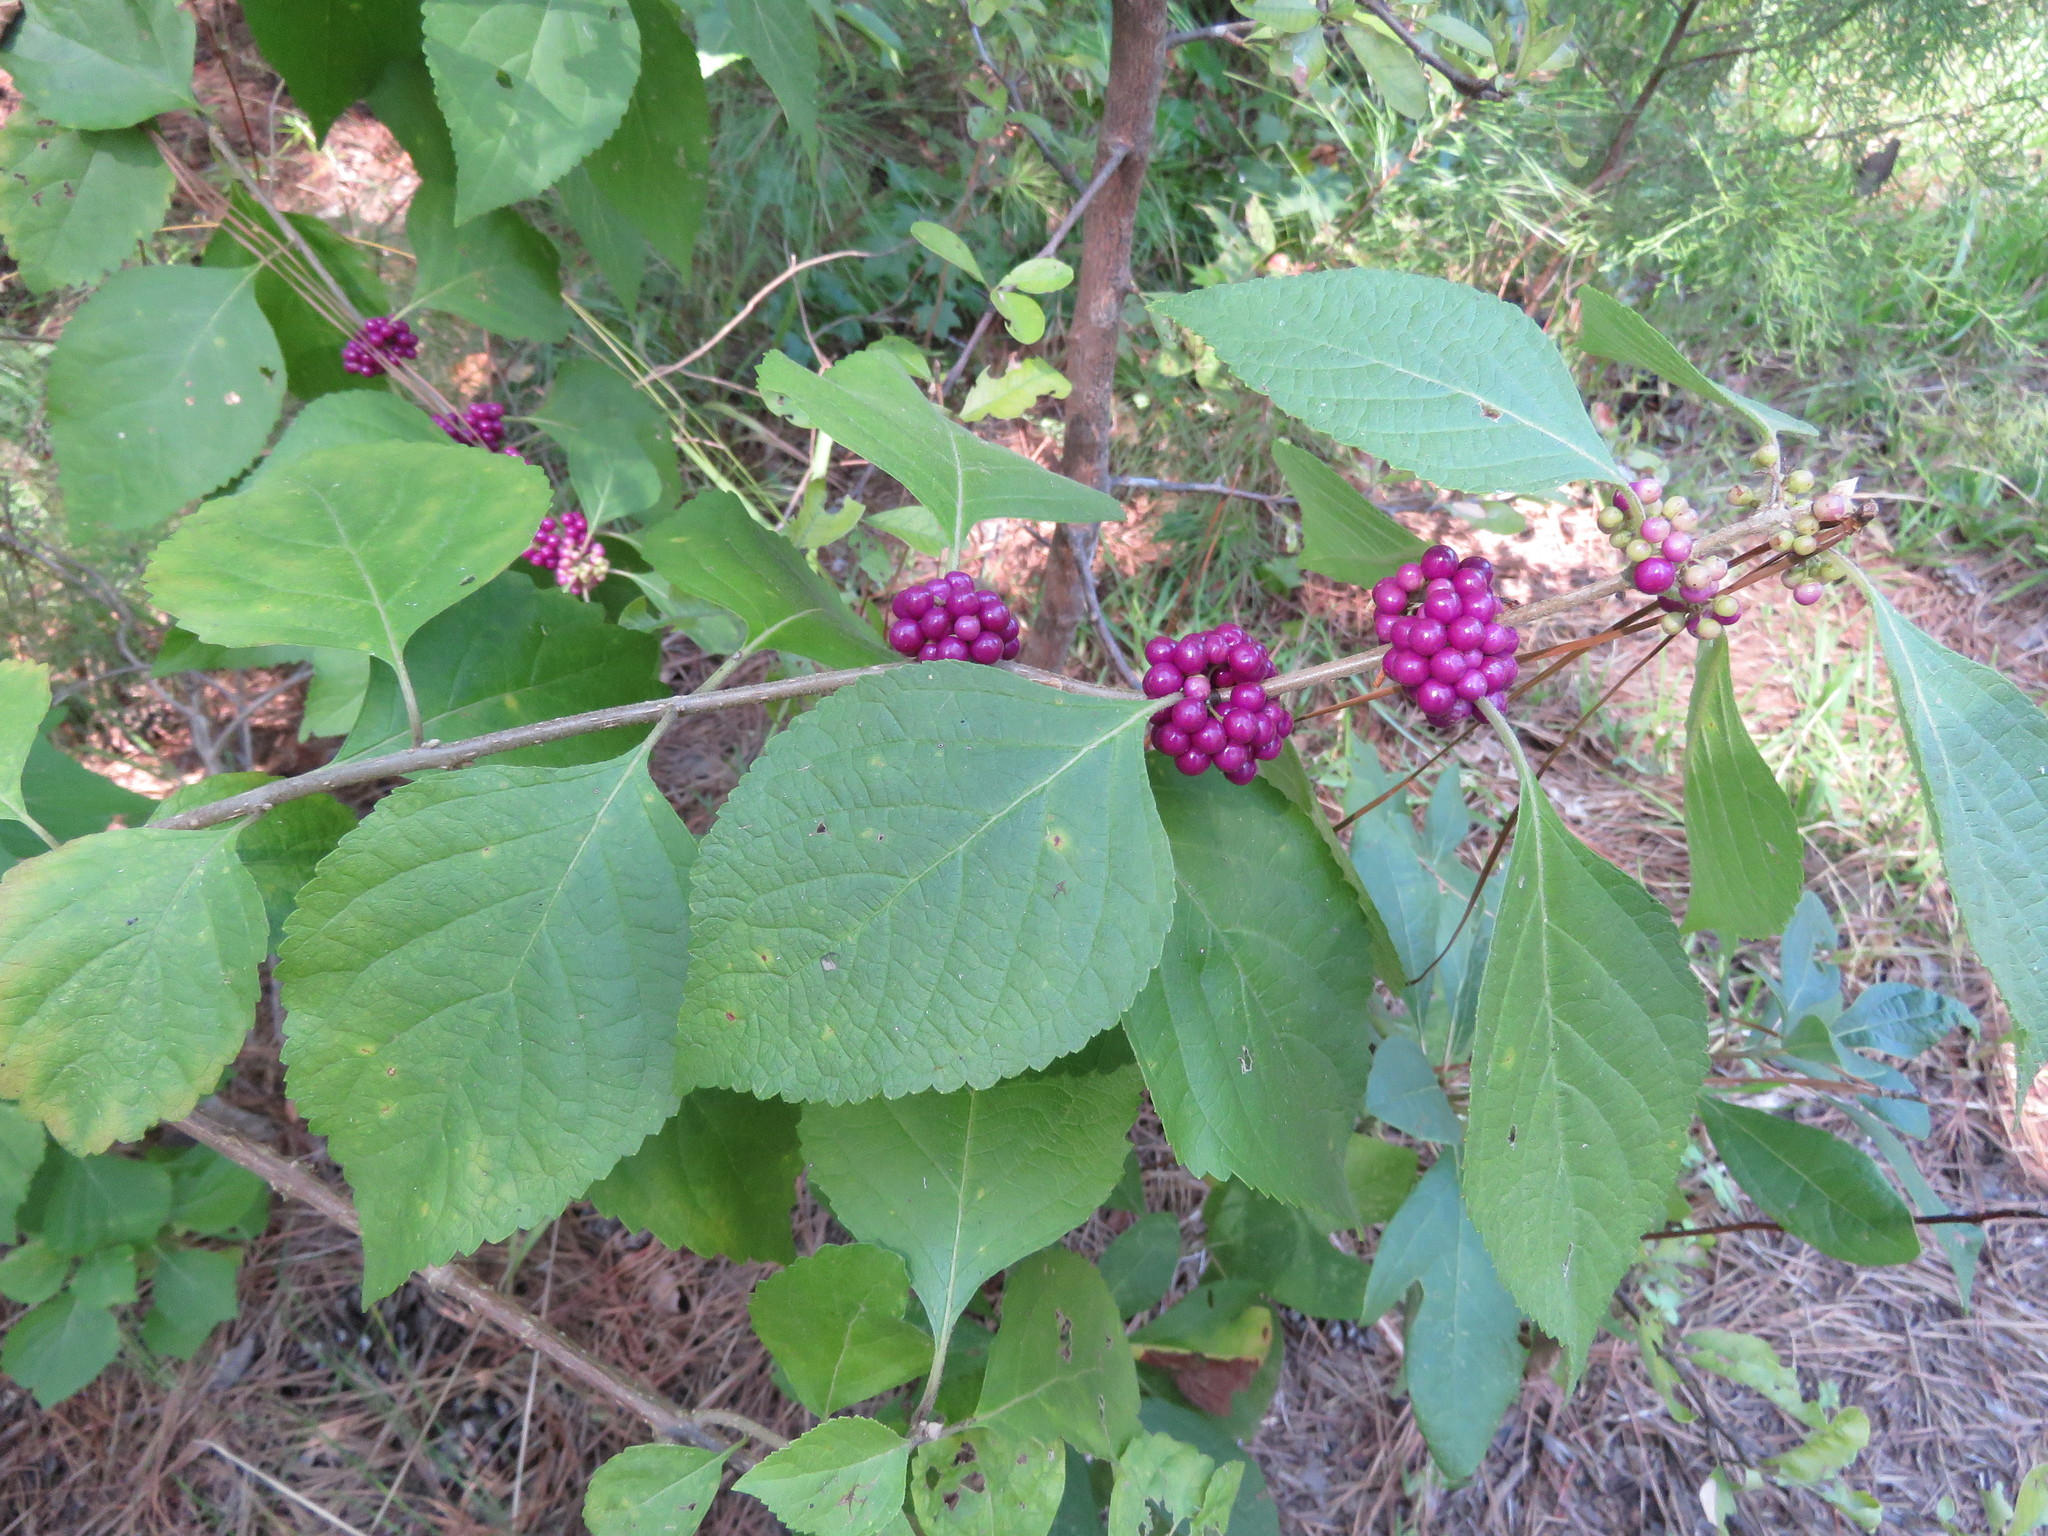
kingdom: Plantae
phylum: Tracheophyta
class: Magnoliopsida
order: Lamiales
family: Lamiaceae
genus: Callicarpa
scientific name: Callicarpa americana
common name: American beautyberry
